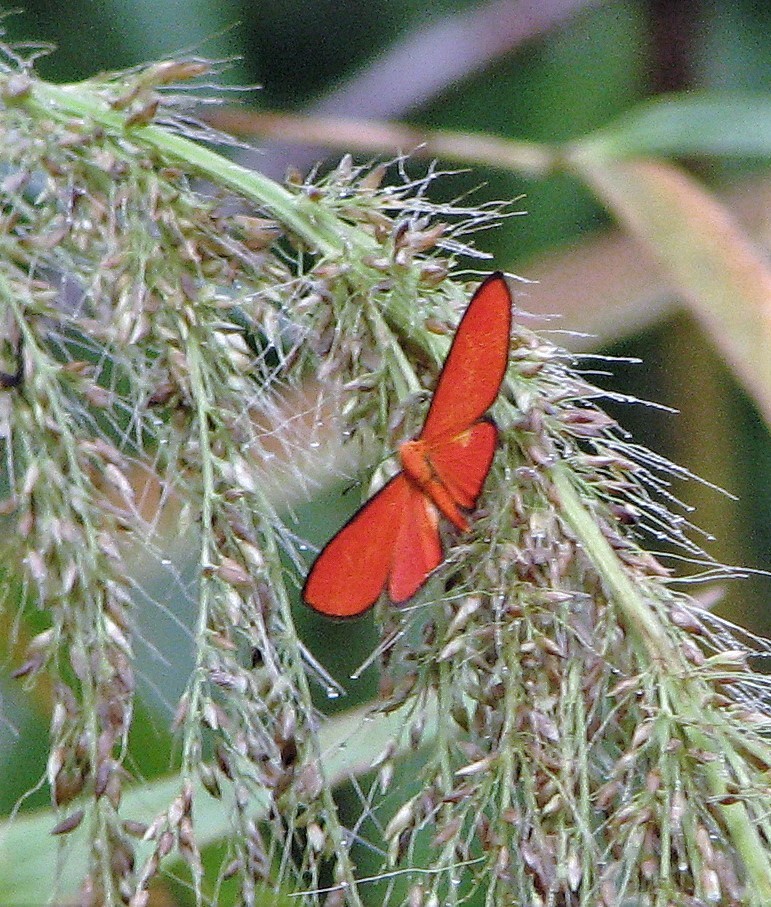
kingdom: Animalia
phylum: Arthropoda
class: Insecta
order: Lepidoptera
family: Lycaenidae
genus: Mesene
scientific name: Mesene epaphus
